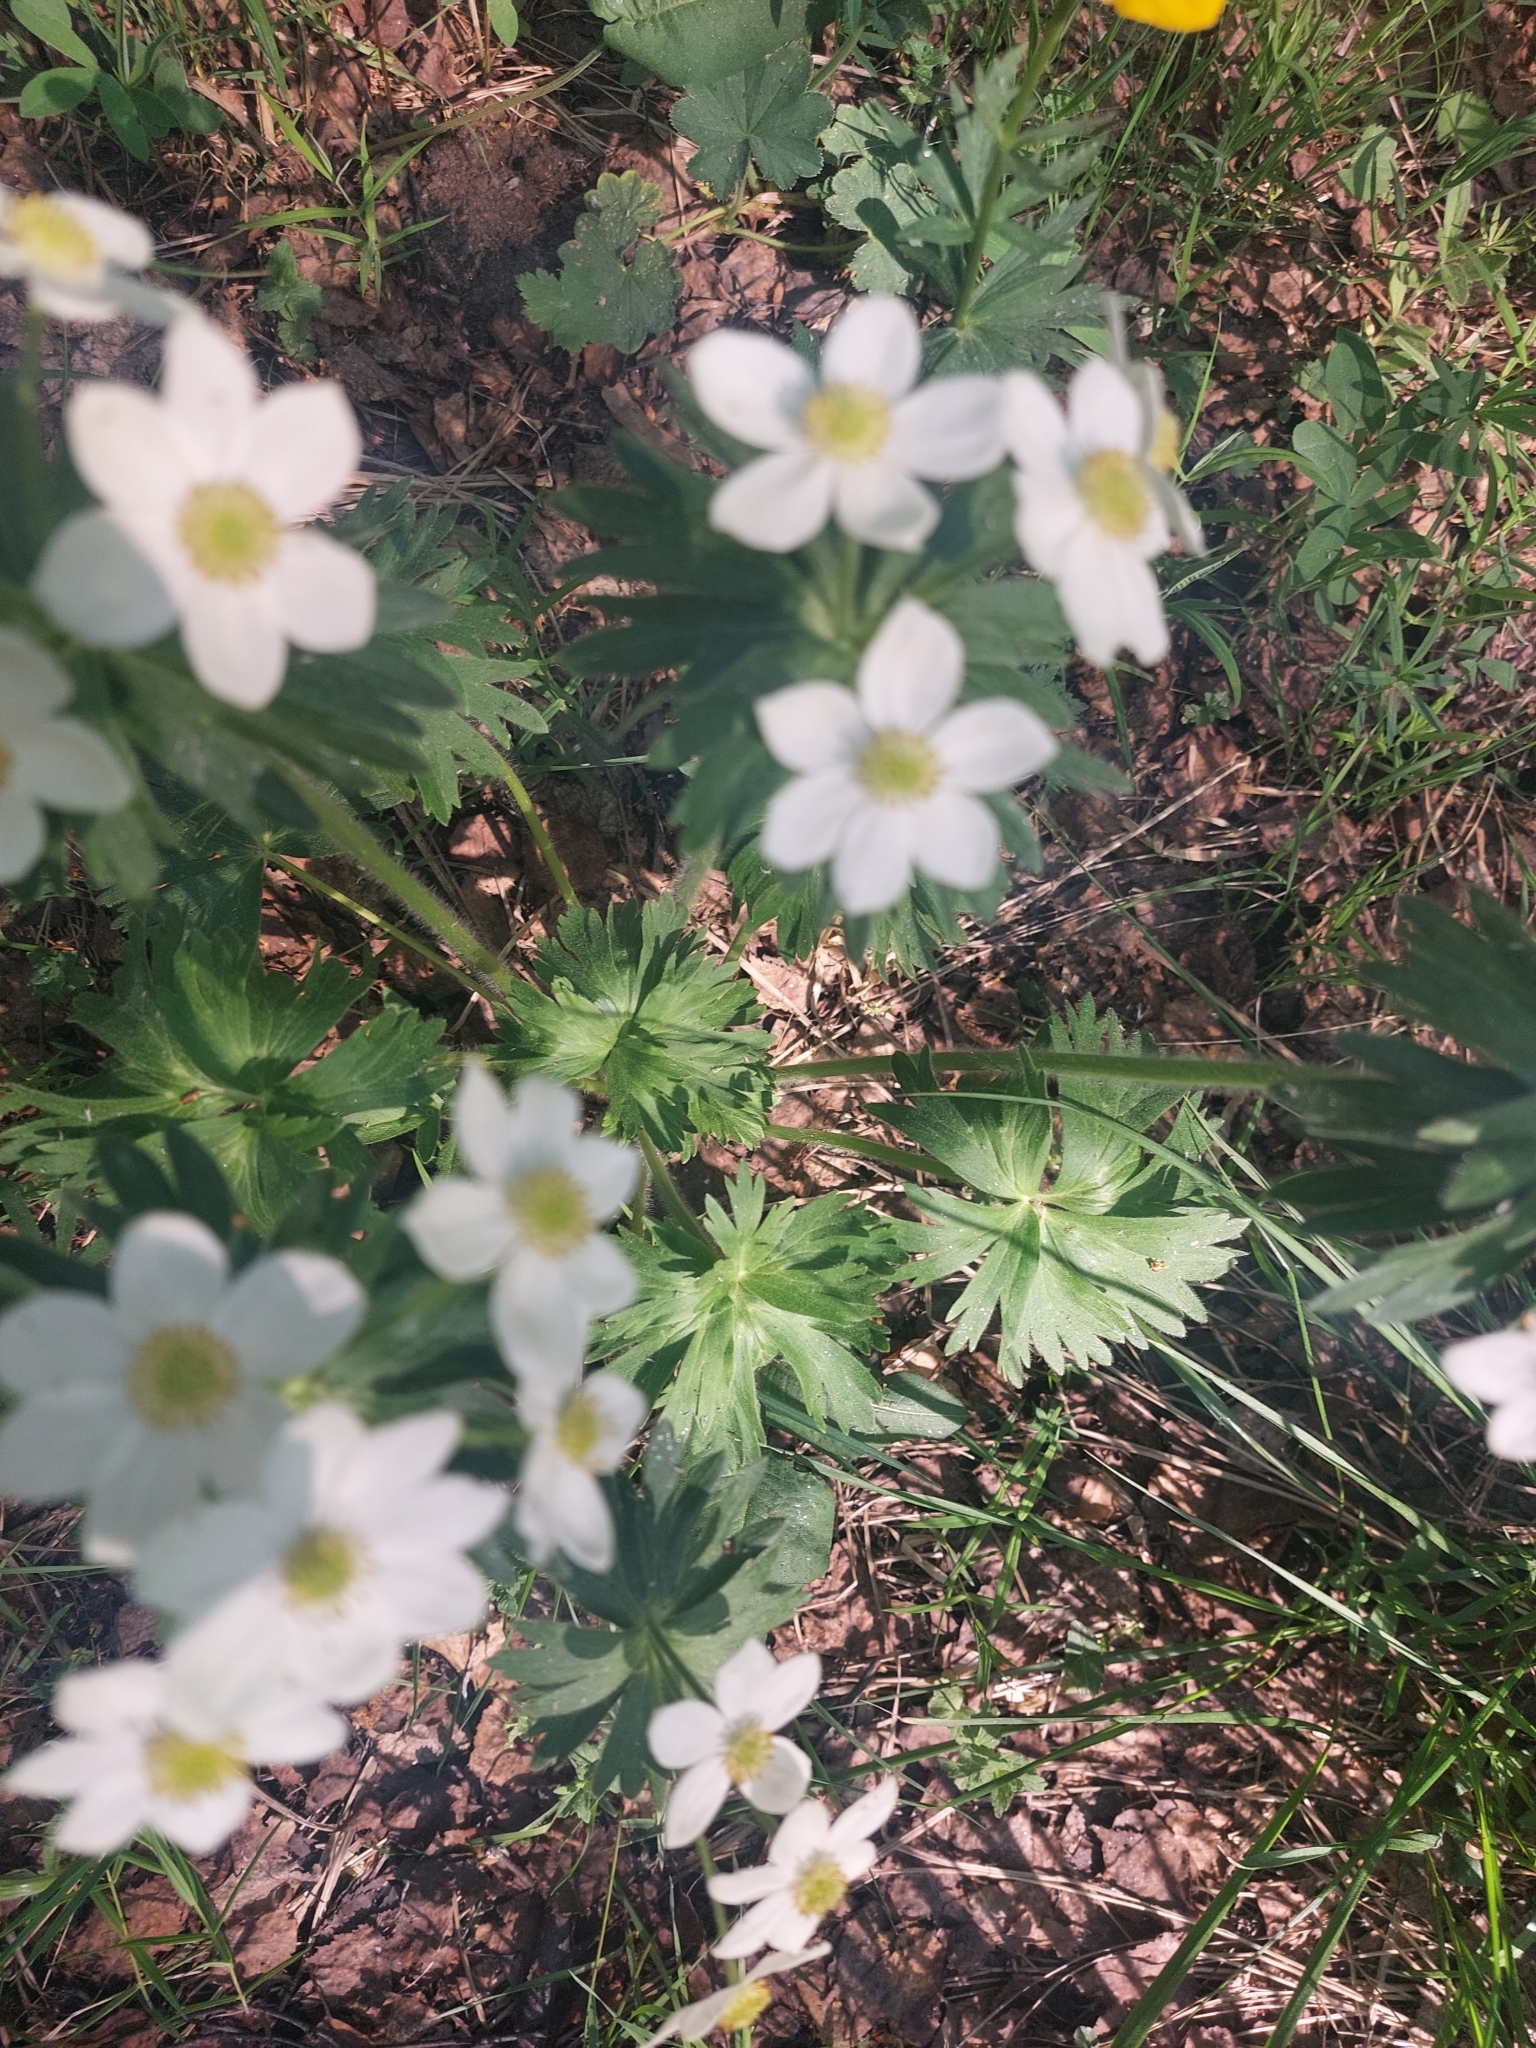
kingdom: Plantae
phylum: Tracheophyta
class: Magnoliopsida
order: Ranunculales
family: Ranunculaceae
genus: Anemonastrum
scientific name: Anemonastrum biarmiense
